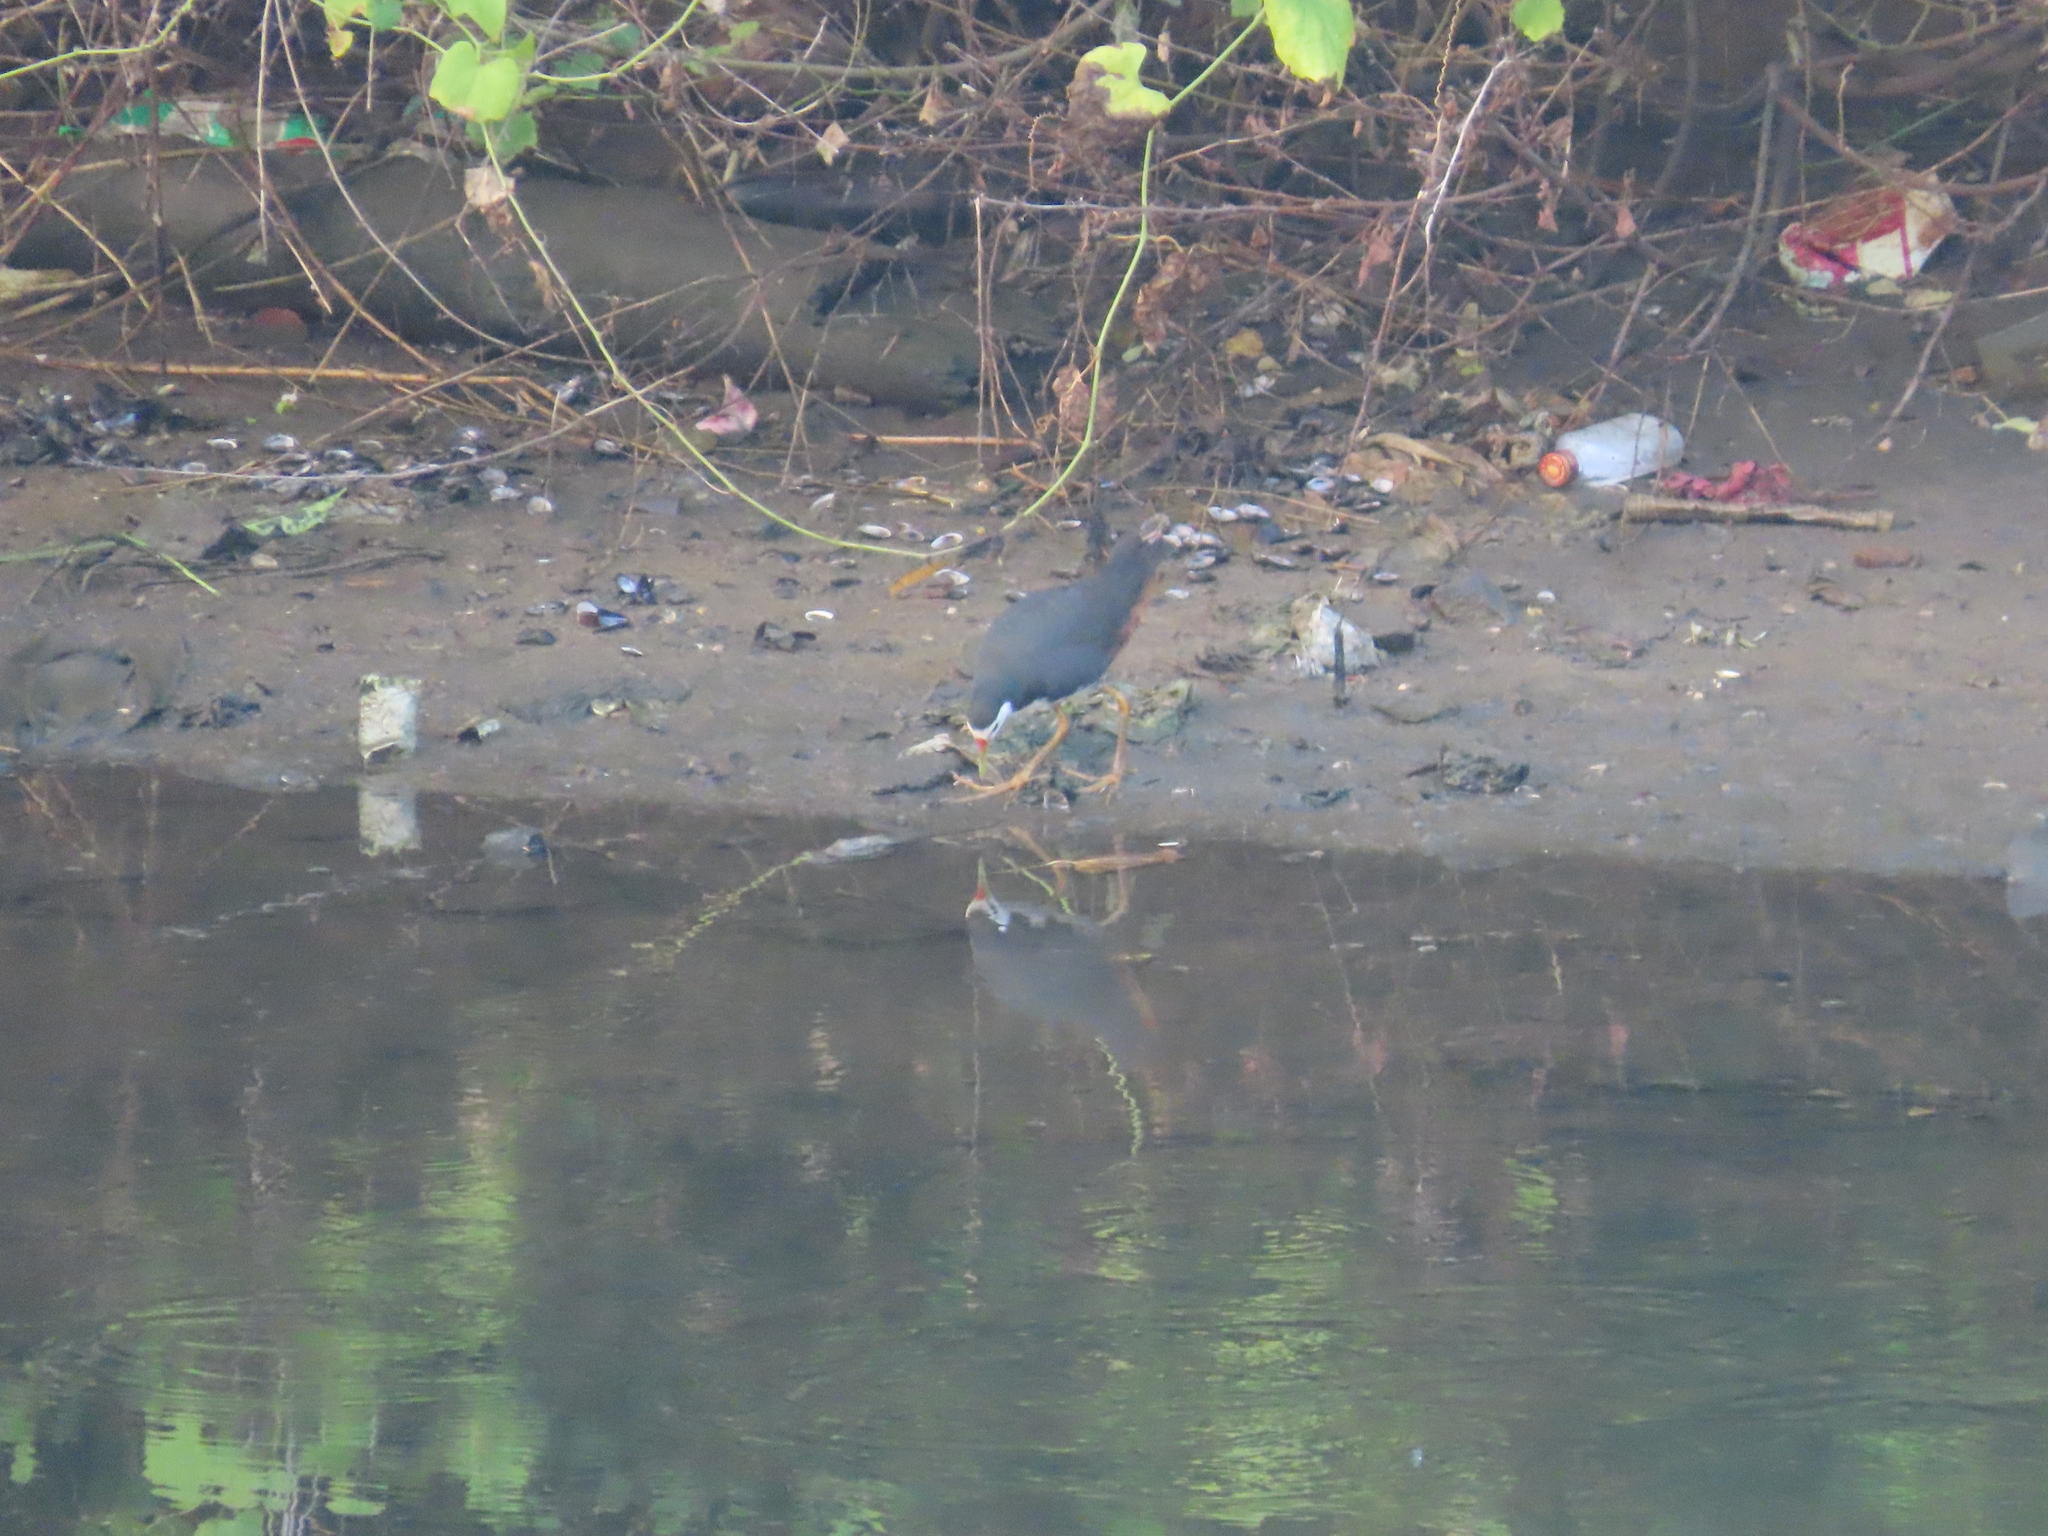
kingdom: Animalia
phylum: Chordata
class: Aves
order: Gruiformes
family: Rallidae
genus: Amaurornis
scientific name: Amaurornis phoenicurus
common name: White-breasted waterhen
